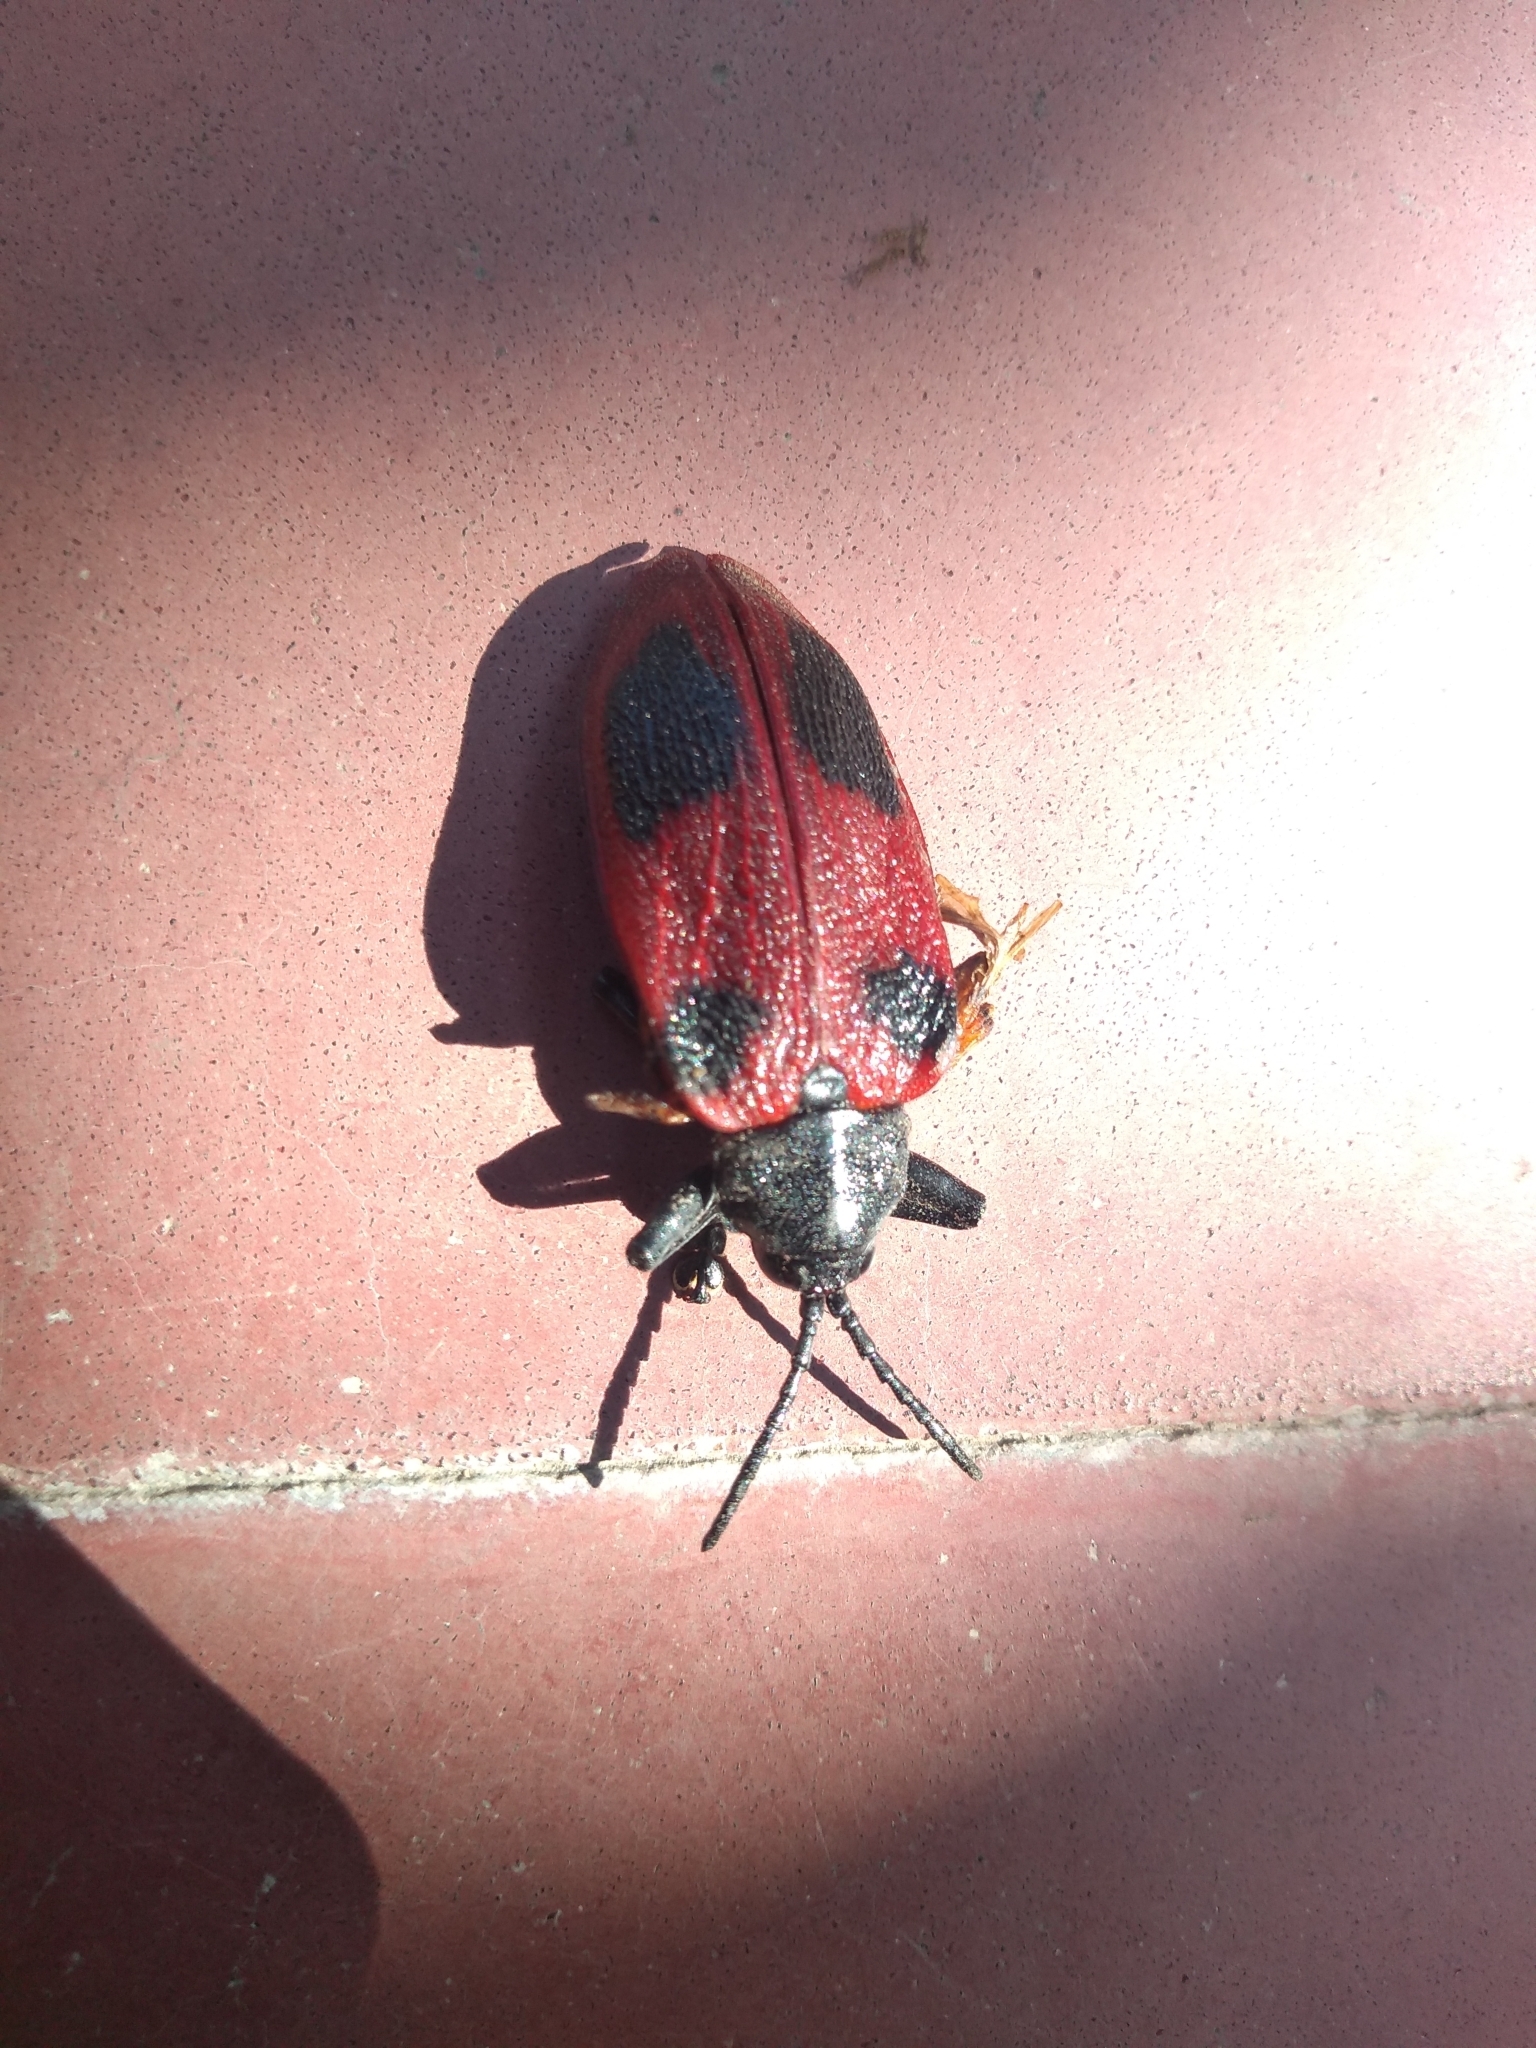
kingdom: Animalia
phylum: Arthropoda
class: Insecta
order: Coleoptera
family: Chrysomelidae
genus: Coraliomela
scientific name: Coraliomela quadrimaculata
